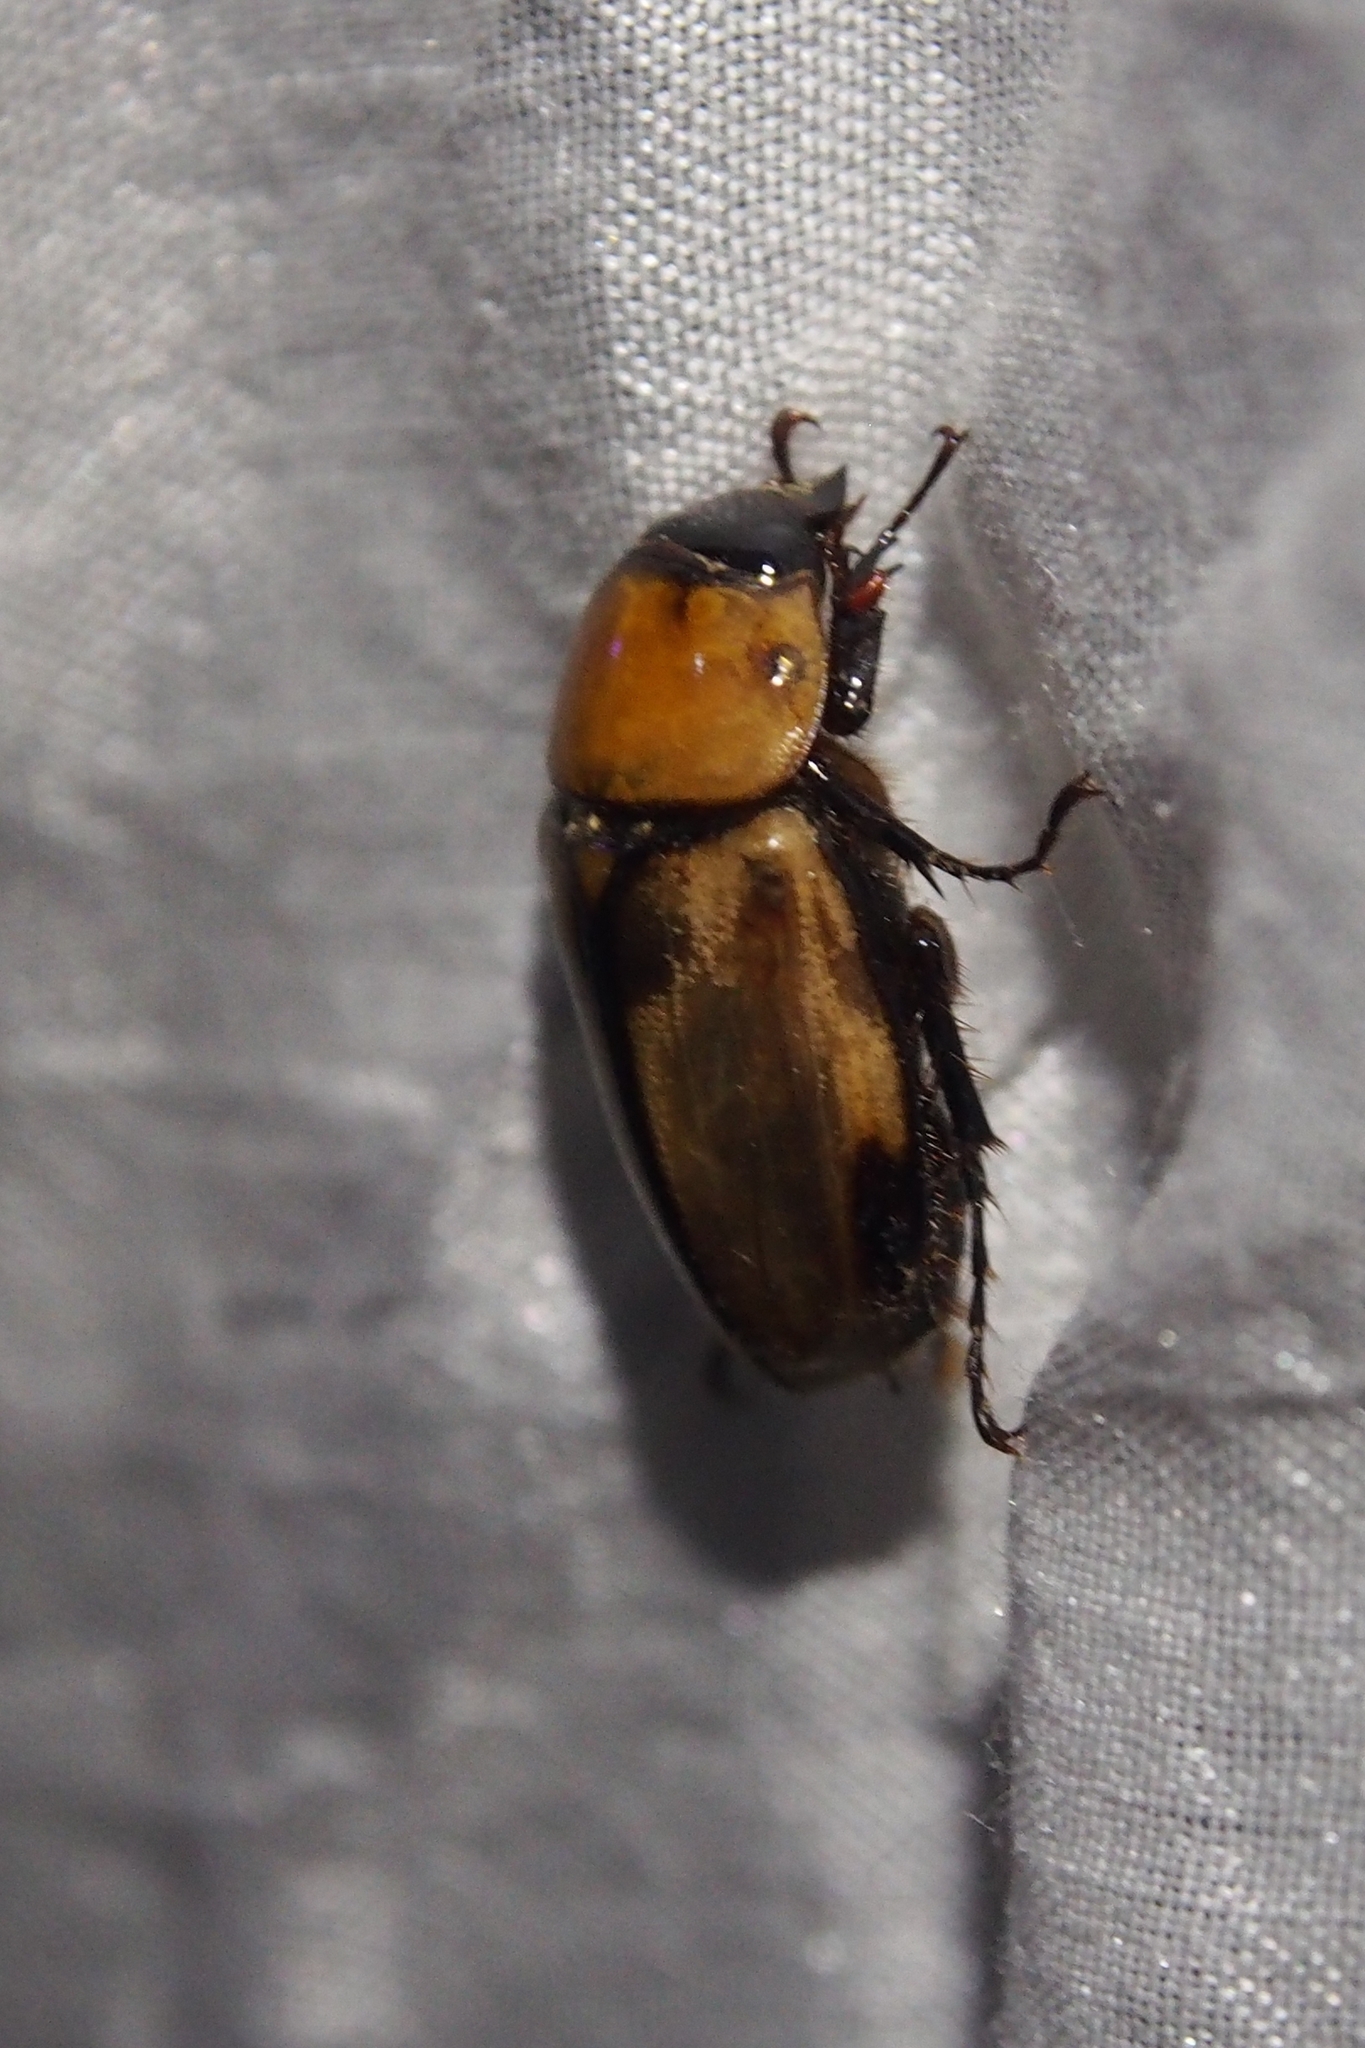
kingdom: Animalia
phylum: Arthropoda
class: Insecta
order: Coleoptera
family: Scarabaeidae
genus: Mimeoma
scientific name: Mimeoma acuta
